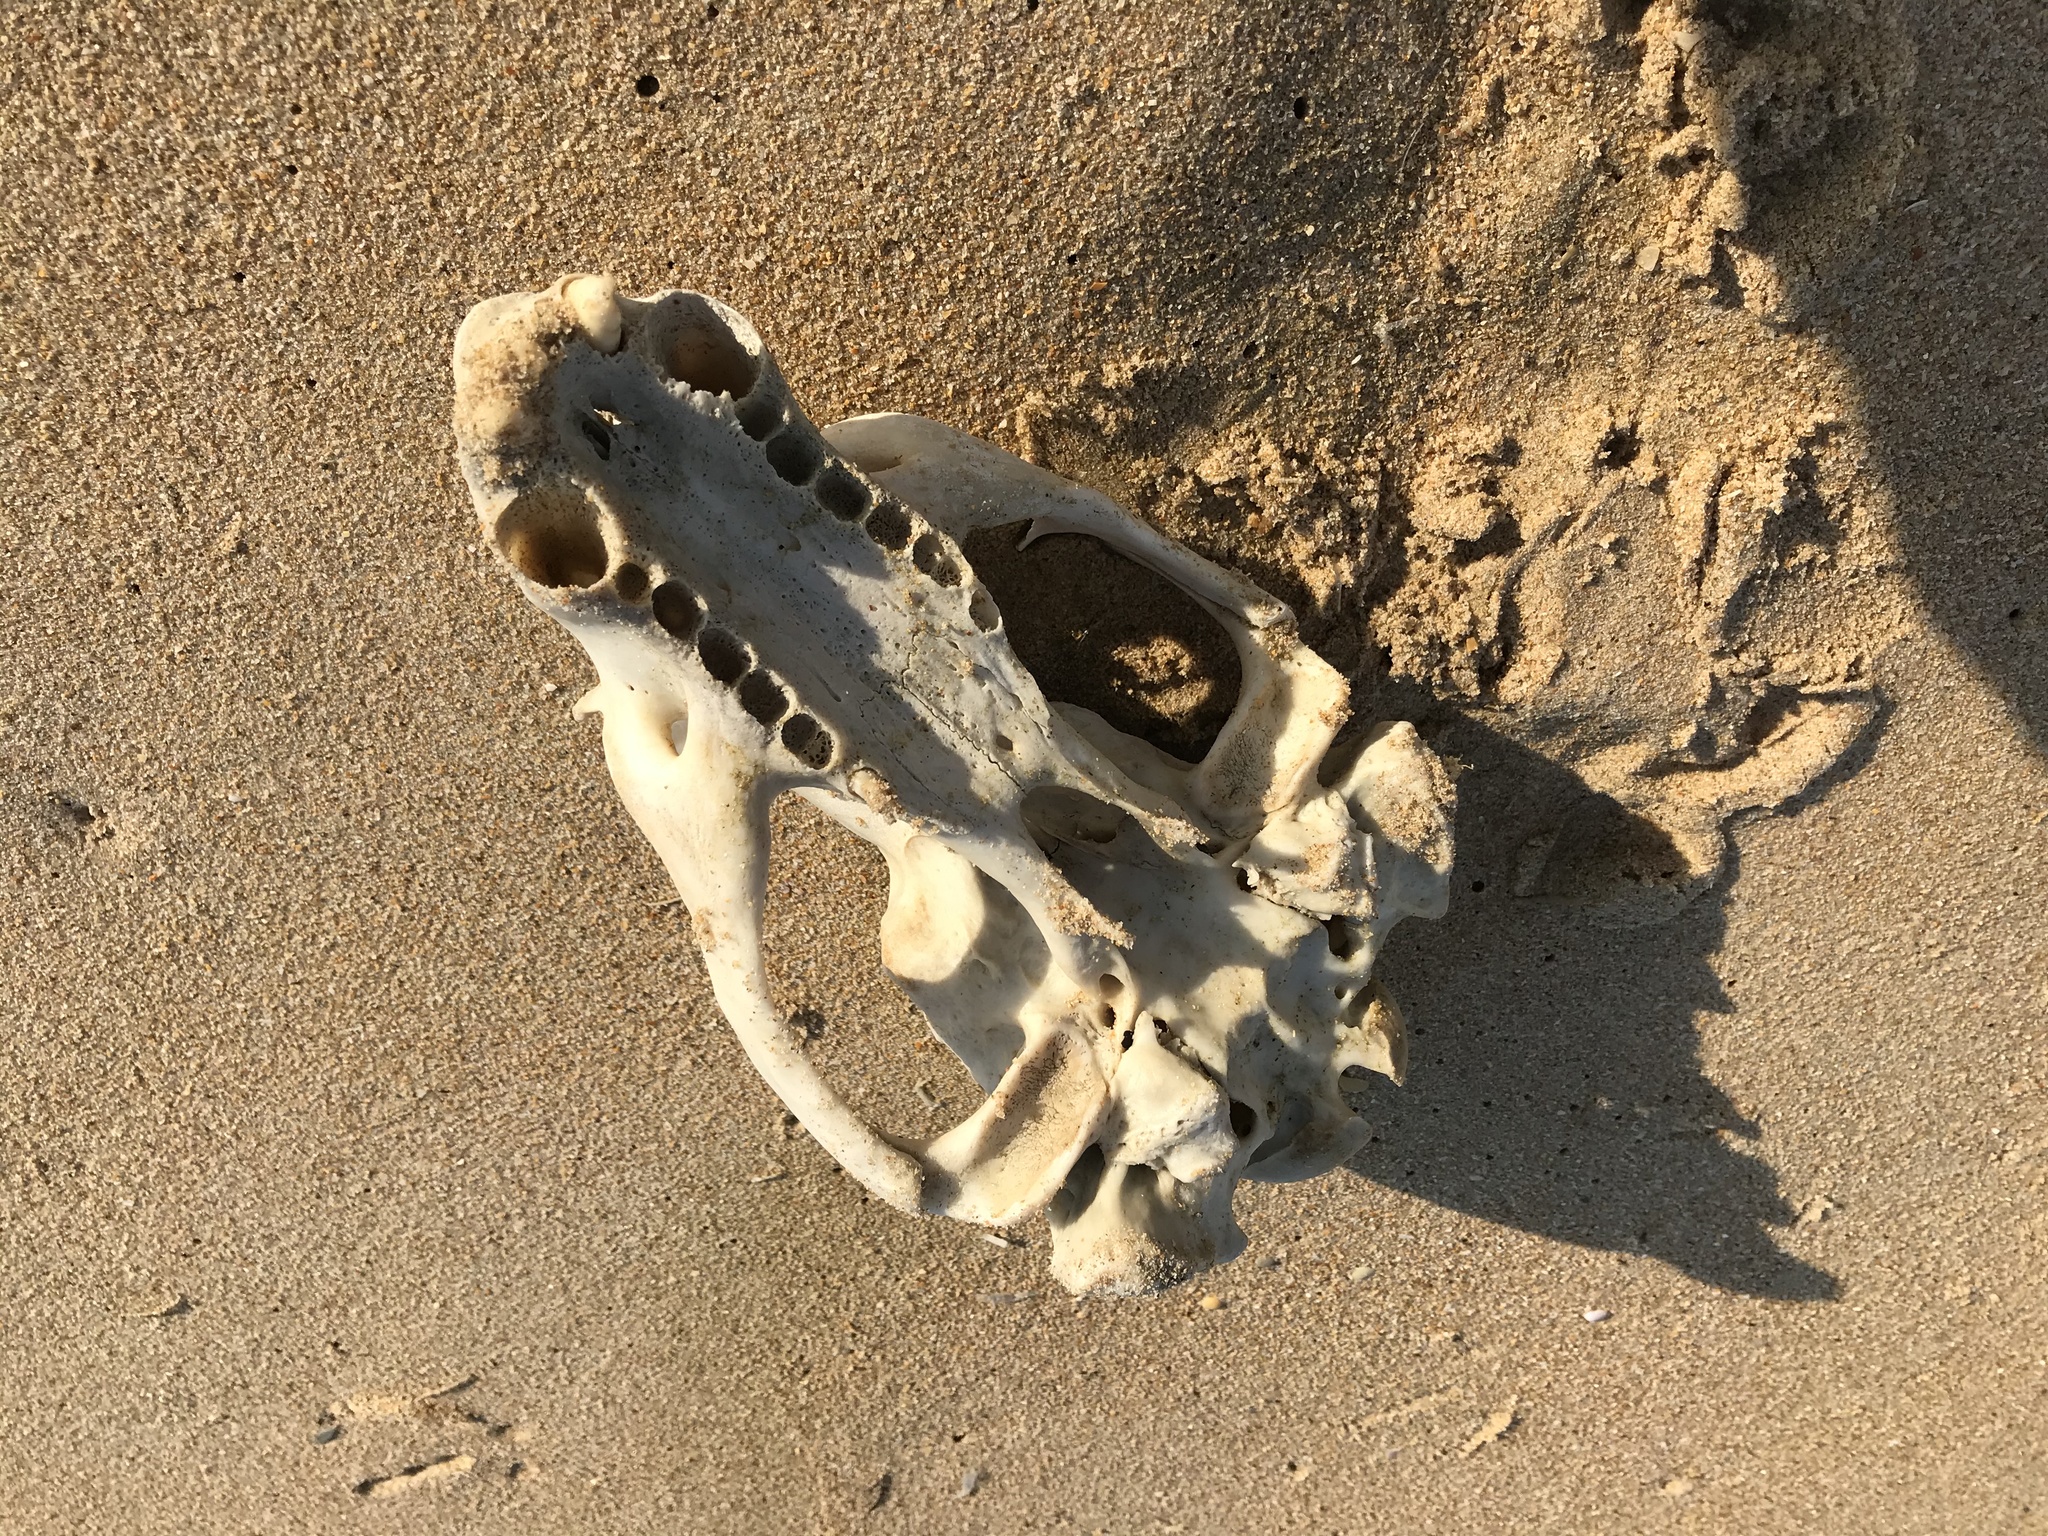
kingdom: Animalia
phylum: Chordata
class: Mammalia
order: Carnivora
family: Otariidae
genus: Arctocephalus
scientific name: Arctocephalus pusillus
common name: Brown fur seal
